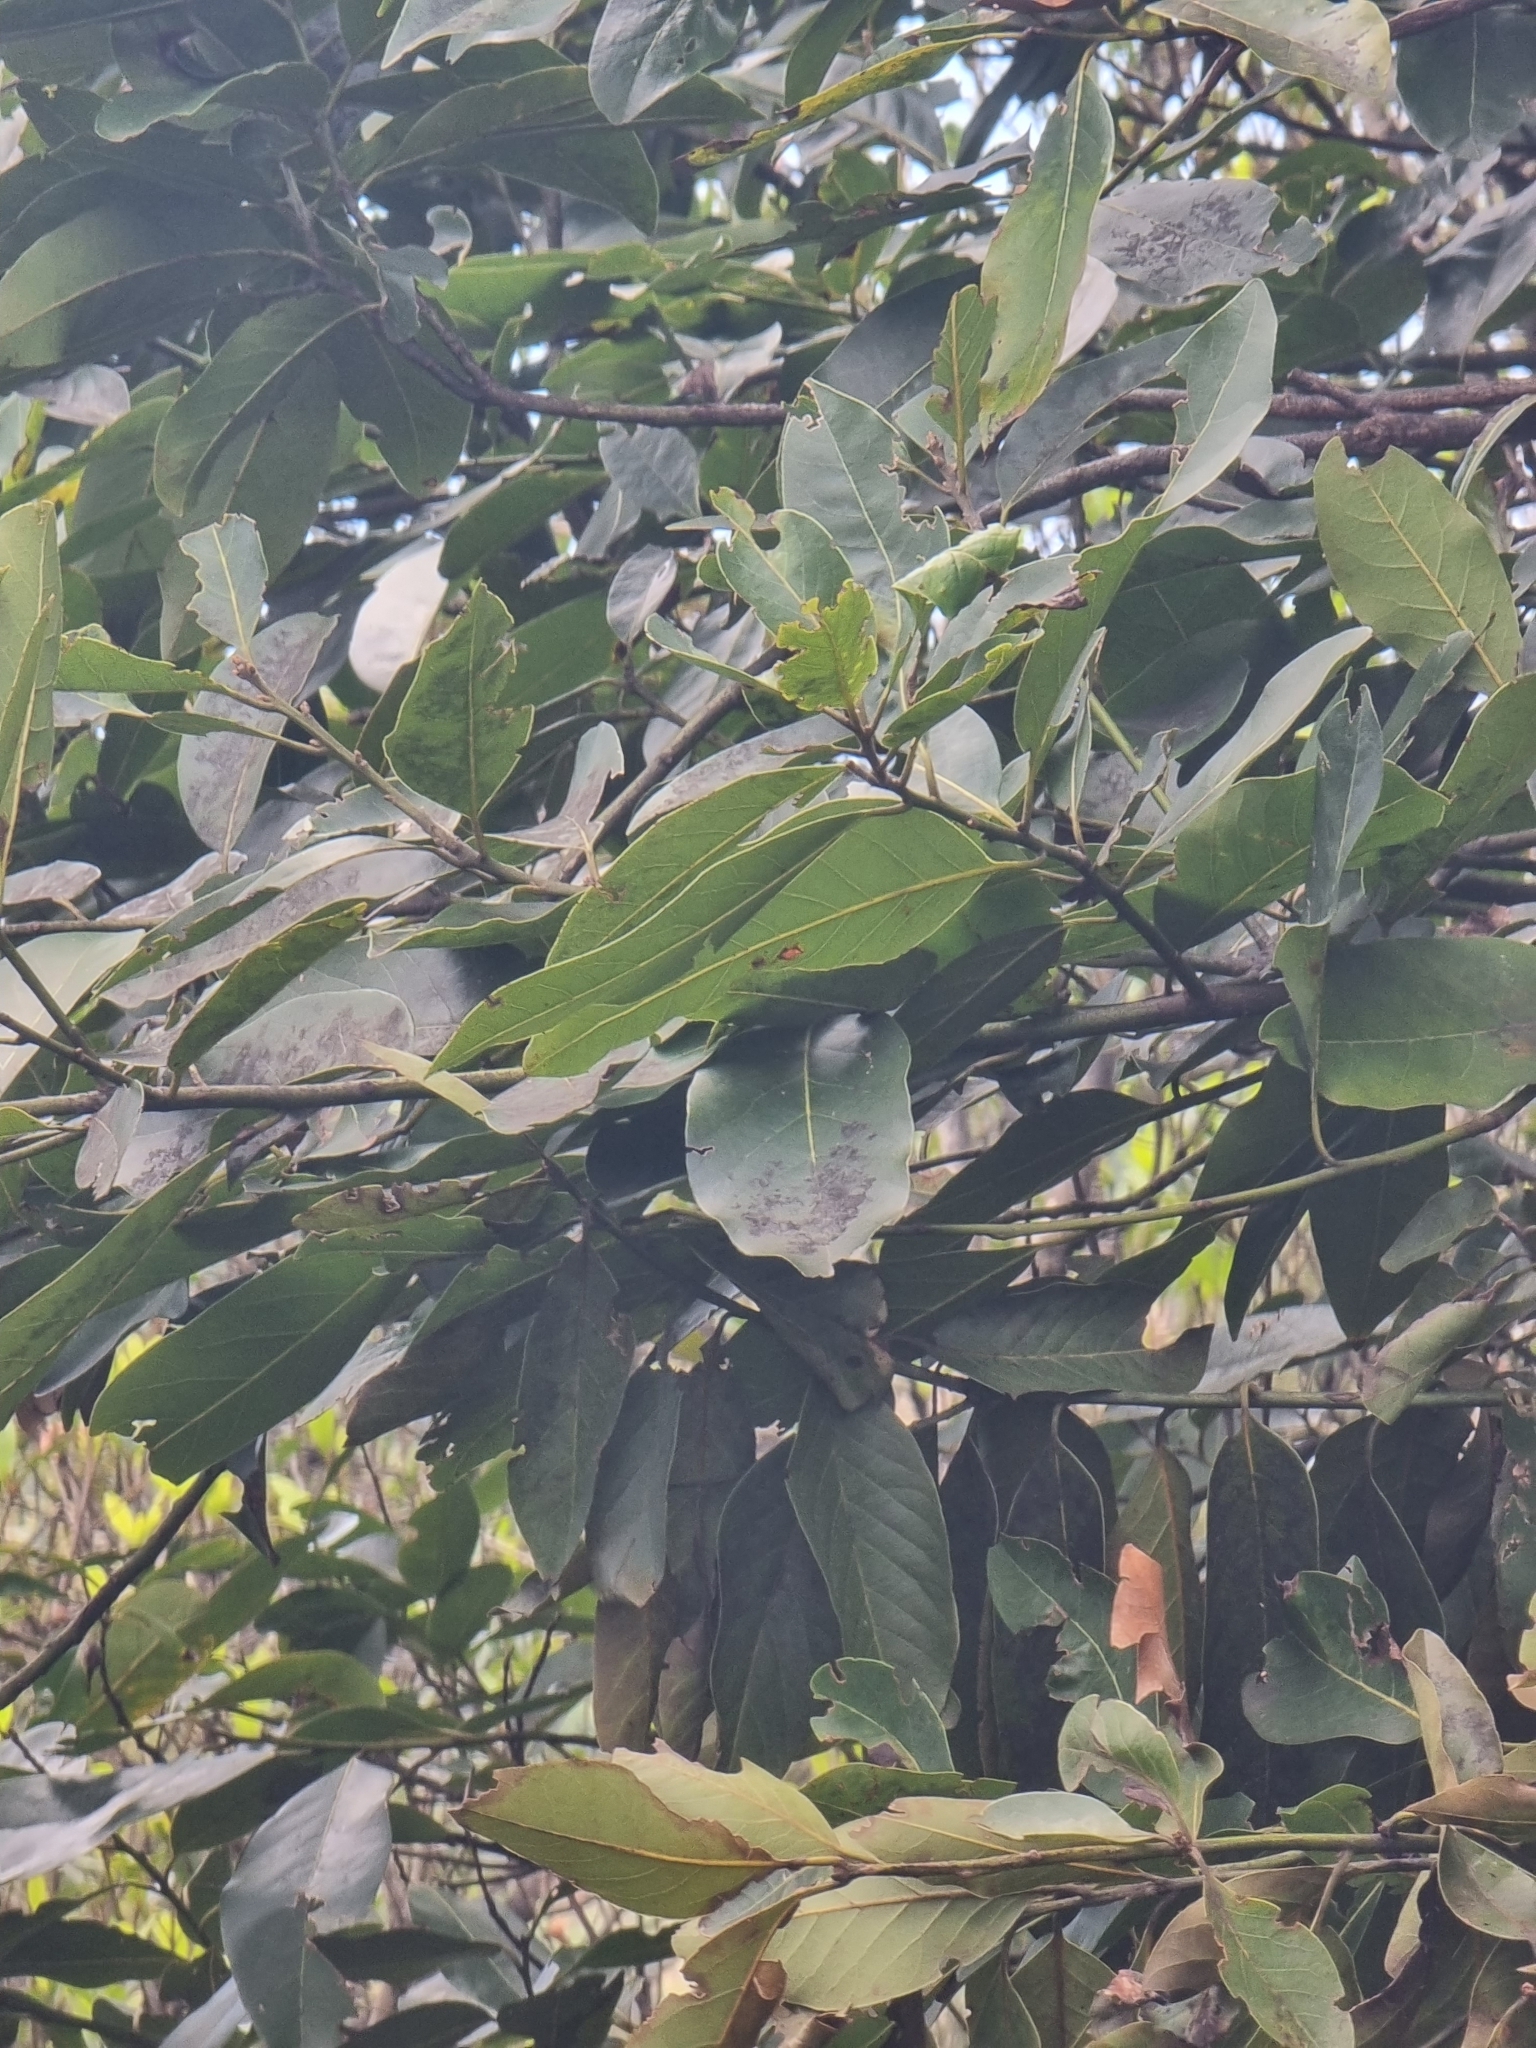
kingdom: Plantae
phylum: Tracheophyta
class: Magnoliopsida
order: Laurales
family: Lauraceae
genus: Laurus
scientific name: Laurus novocanariensis
